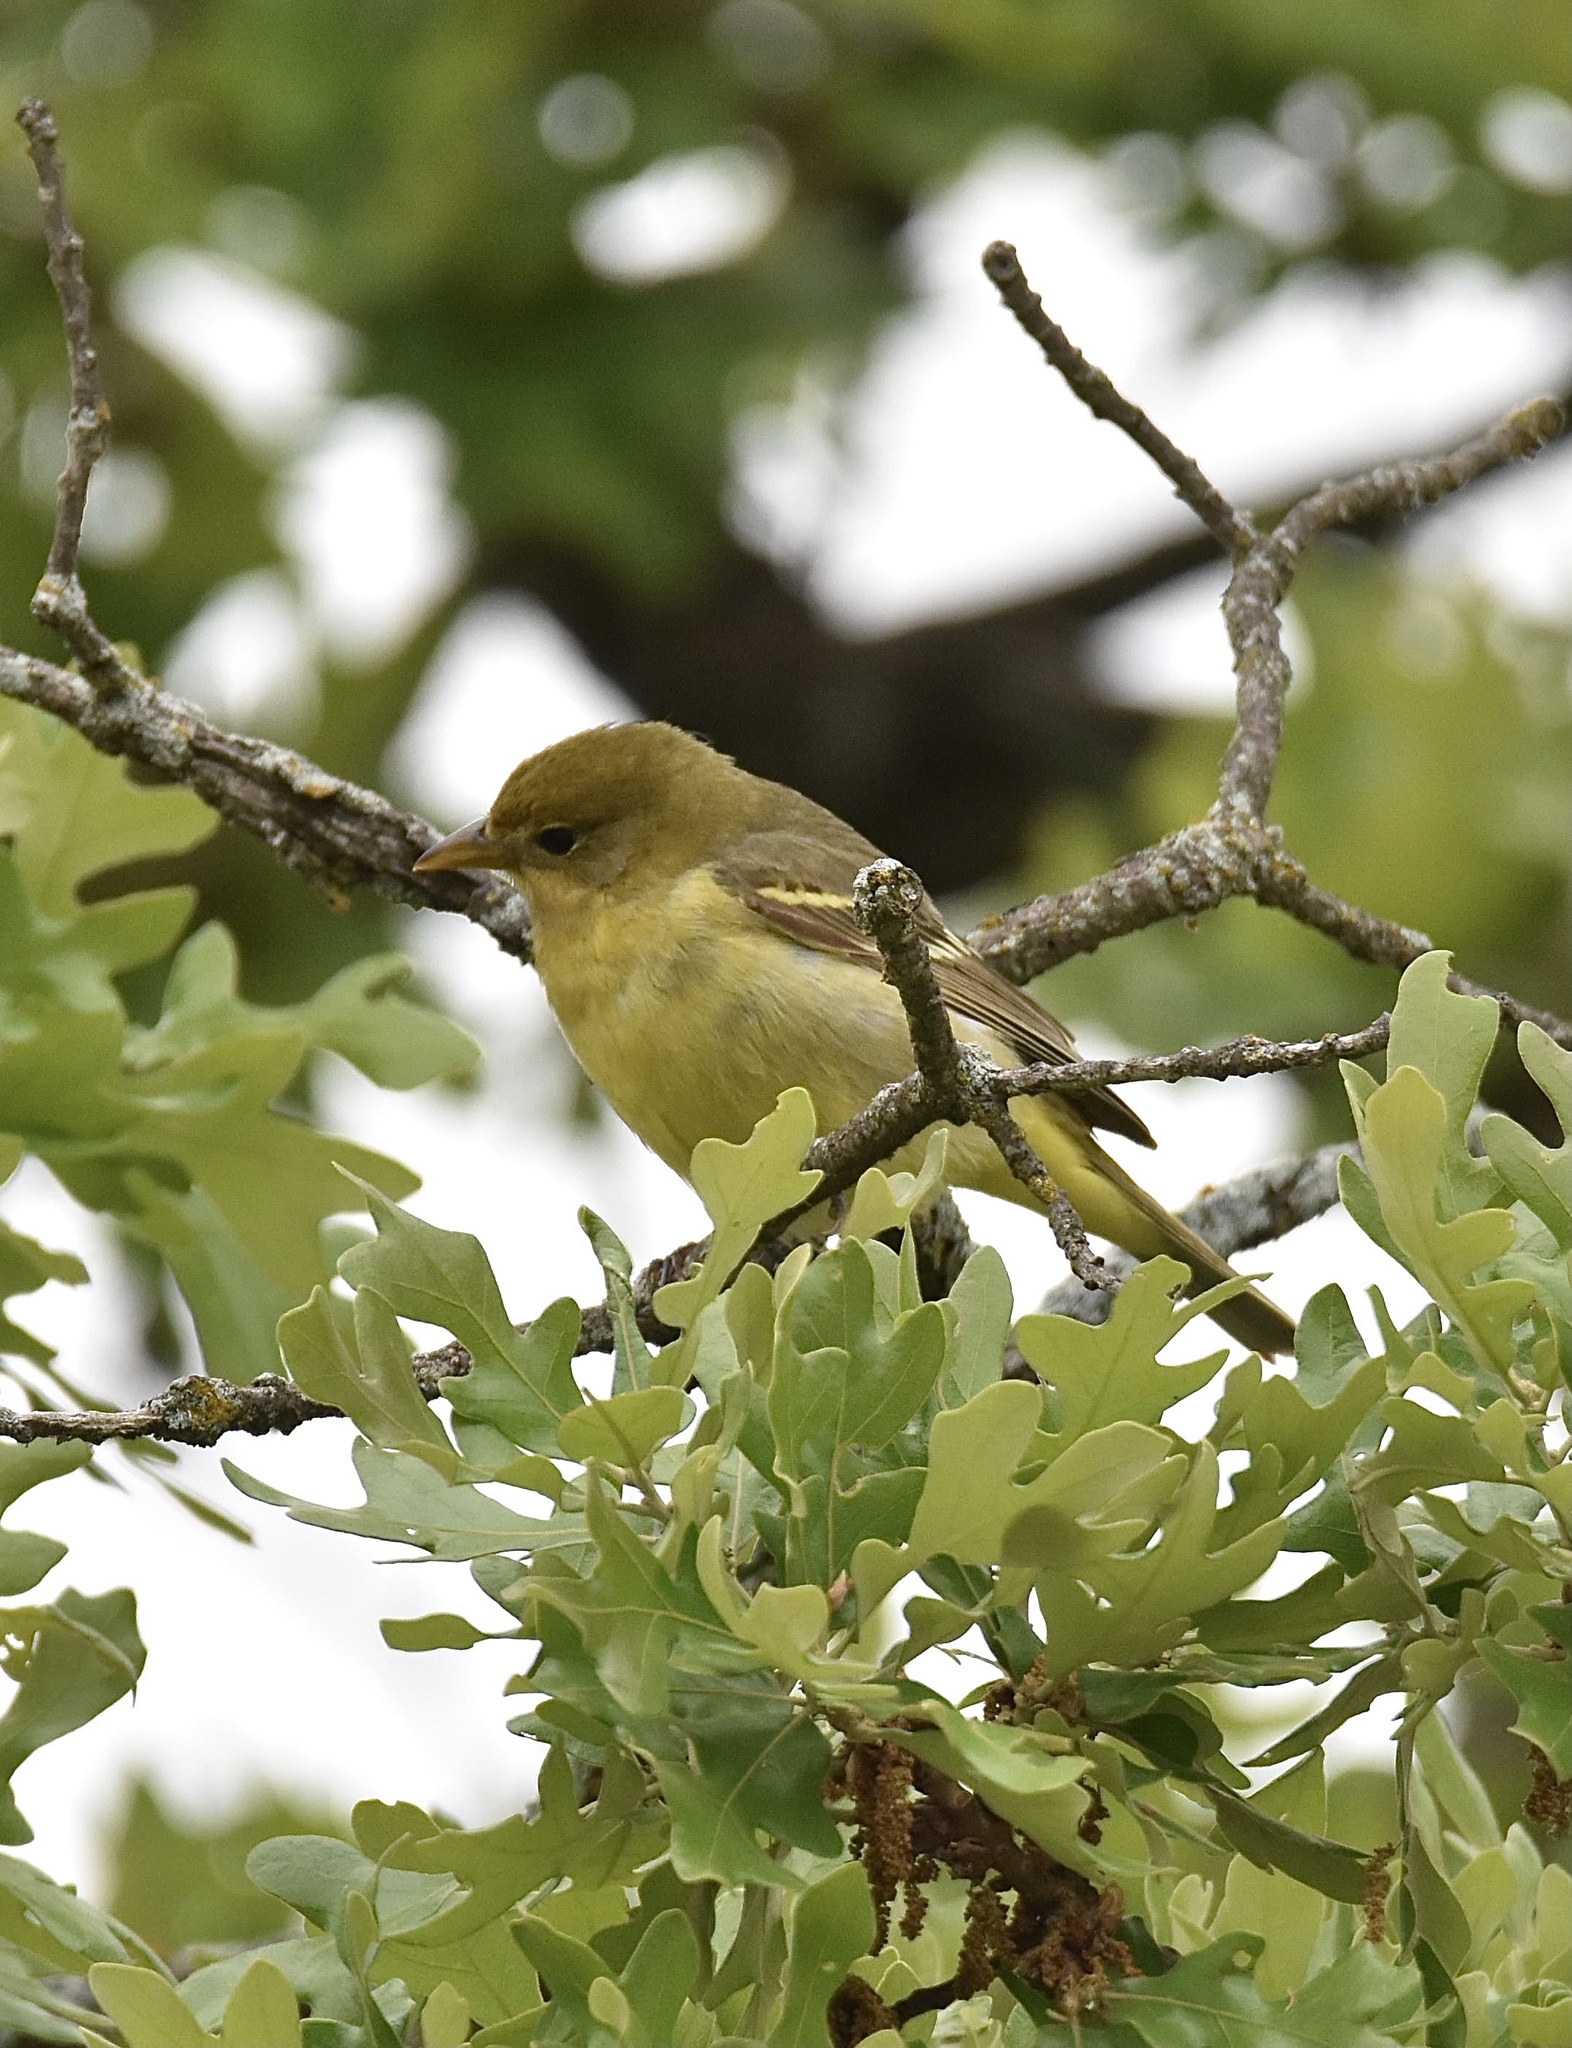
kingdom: Animalia
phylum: Chordata
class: Aves
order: Passeriformes
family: Cardinalidae
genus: Piranga
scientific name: Piranga ludoviciana
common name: Western tanager
